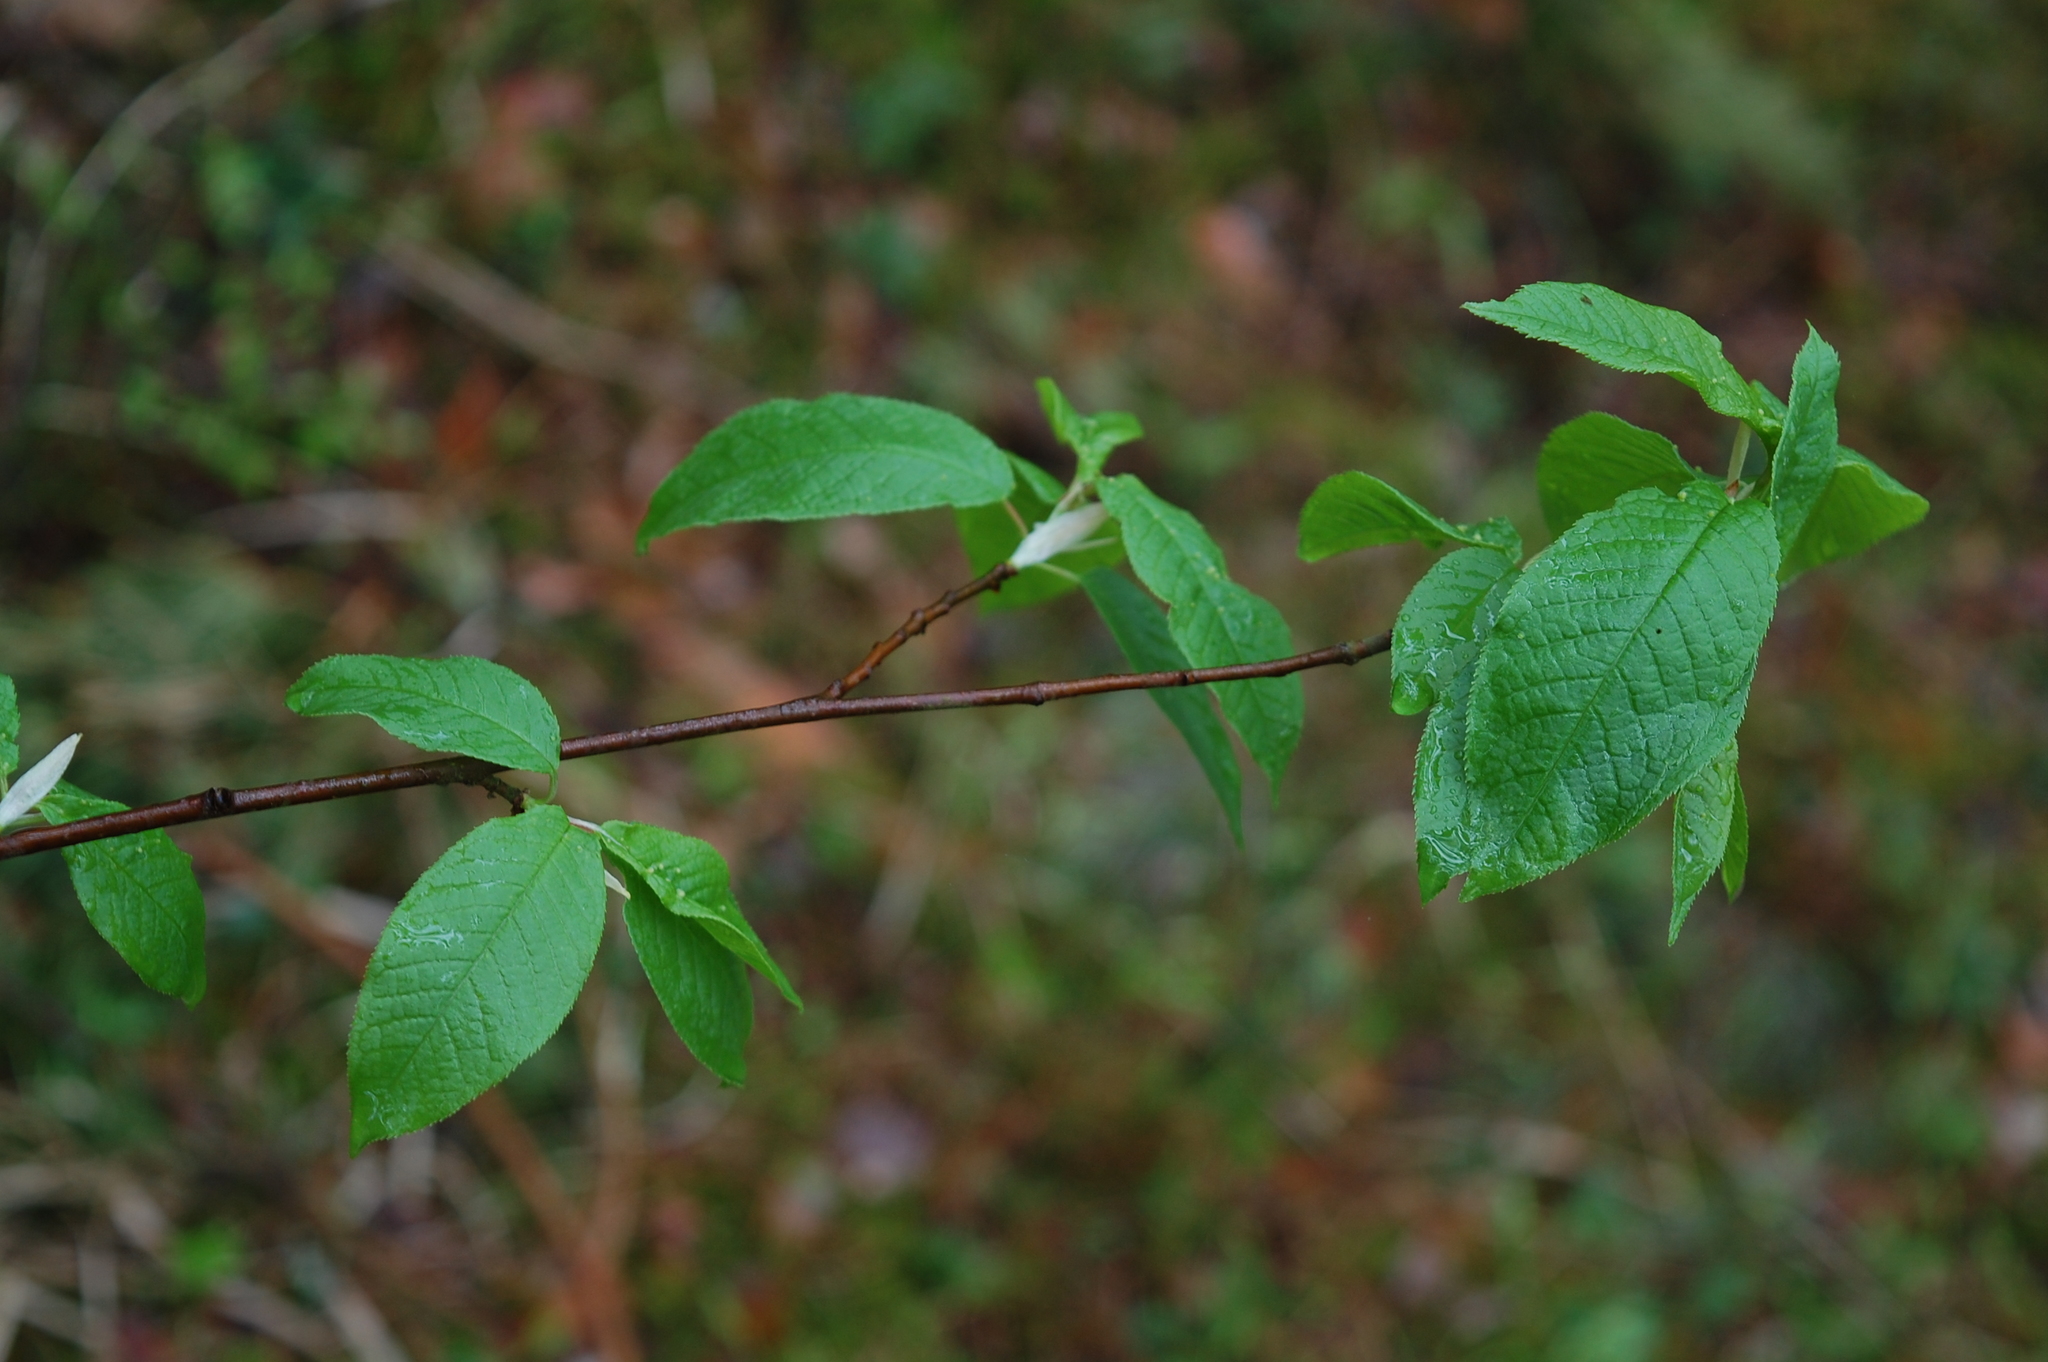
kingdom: Plantae
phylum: Tracheophyta
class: Magnoliopsida
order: Rosales
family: Rosaceae
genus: Prunus
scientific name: Prunus padus
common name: Bird cherry
